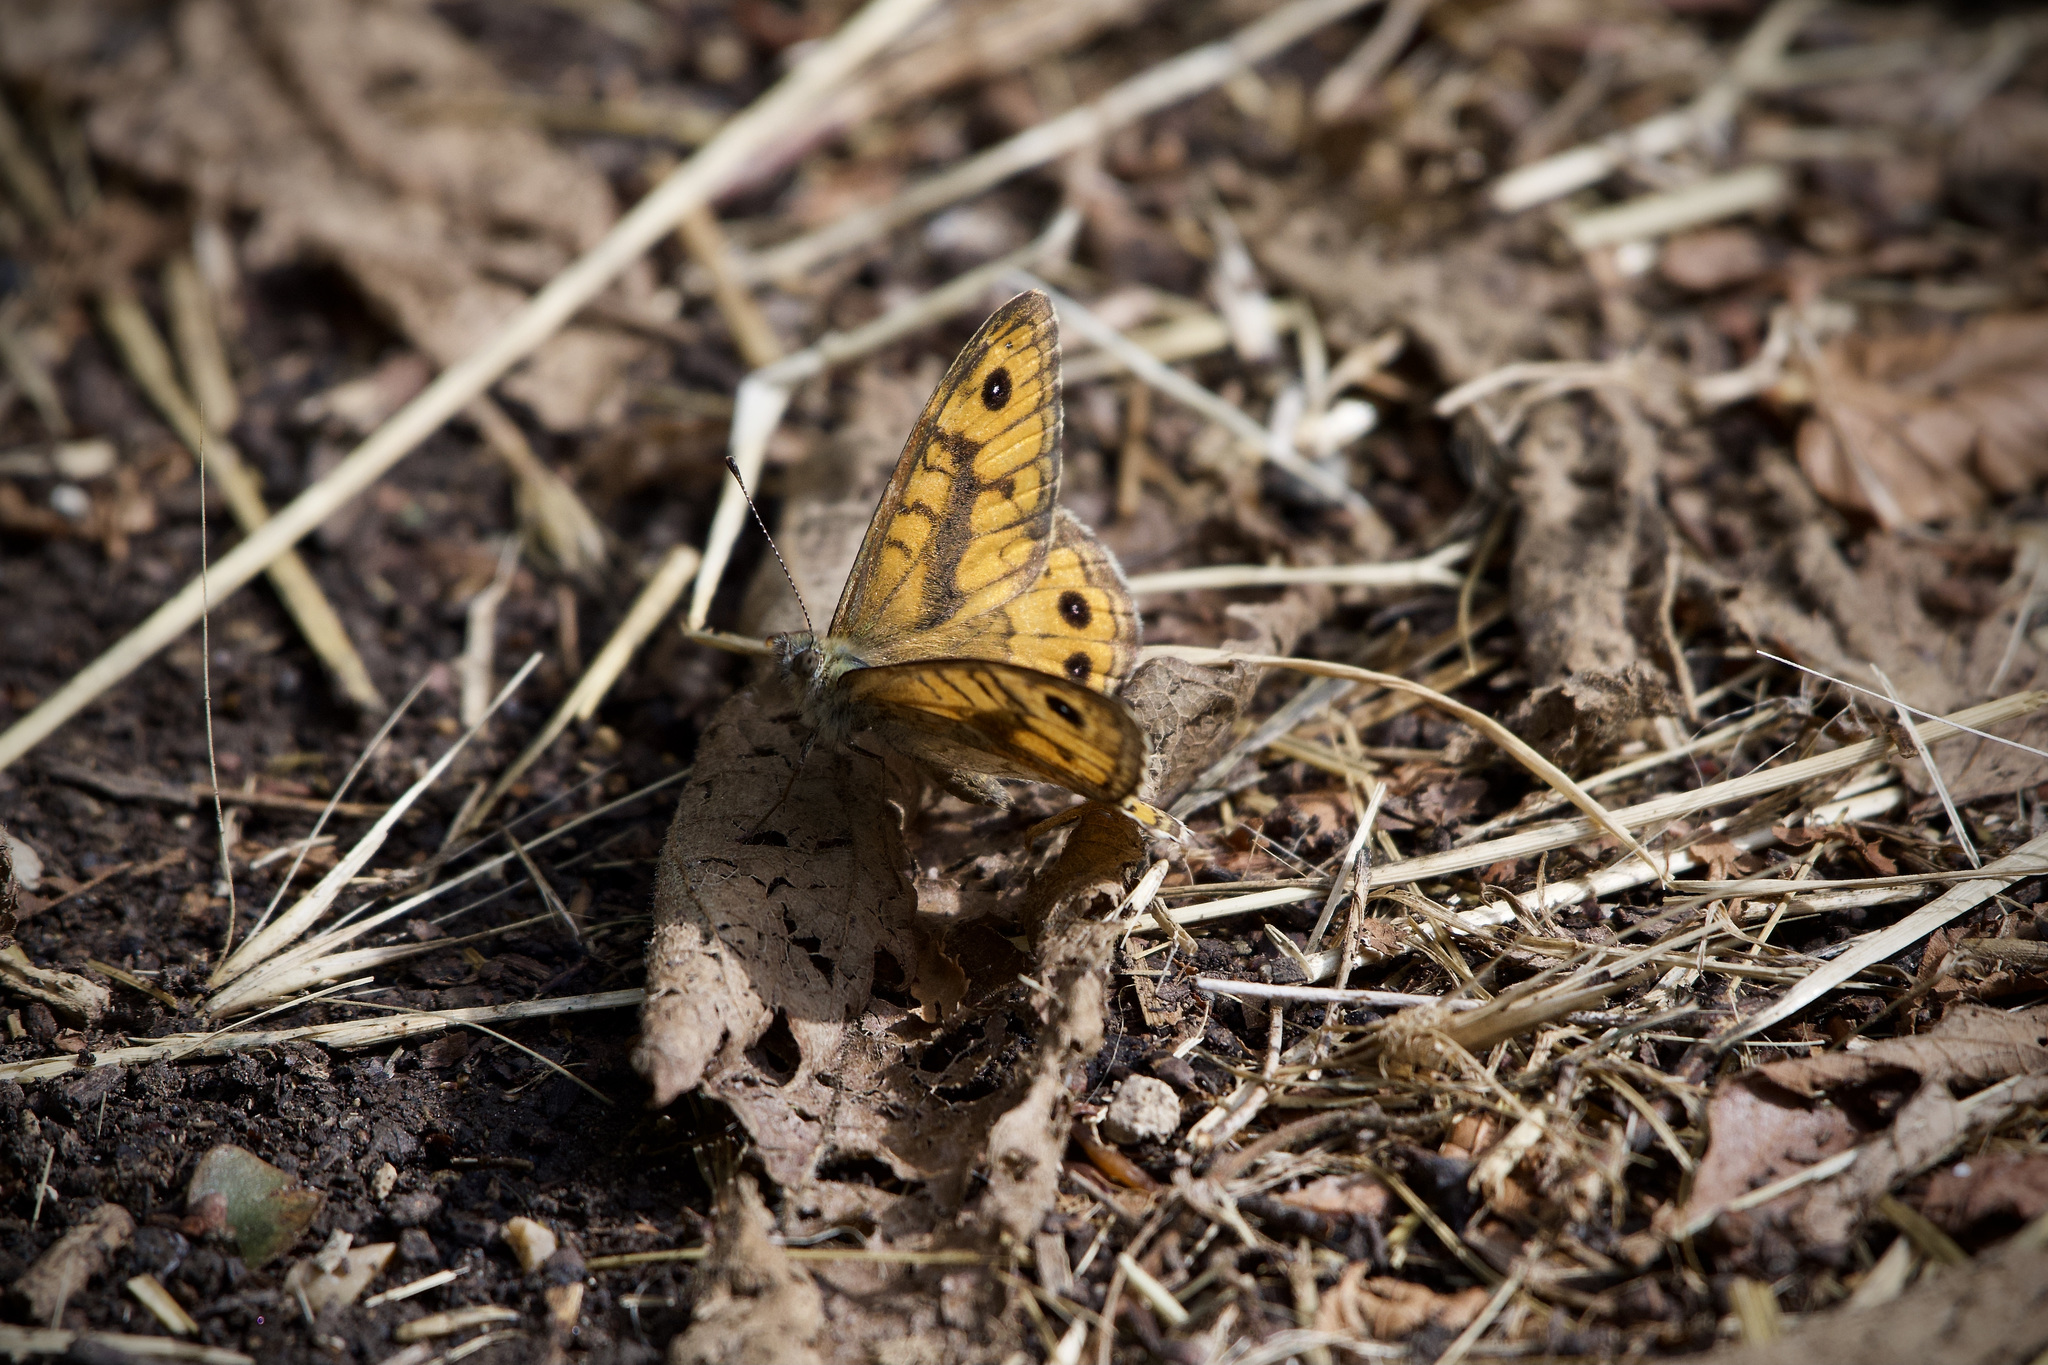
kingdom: Animalia
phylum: Arthropoda
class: Insecta
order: Lepidoptera
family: Nymphalidae
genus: Pararge
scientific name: Pararge Lasiommata megera
